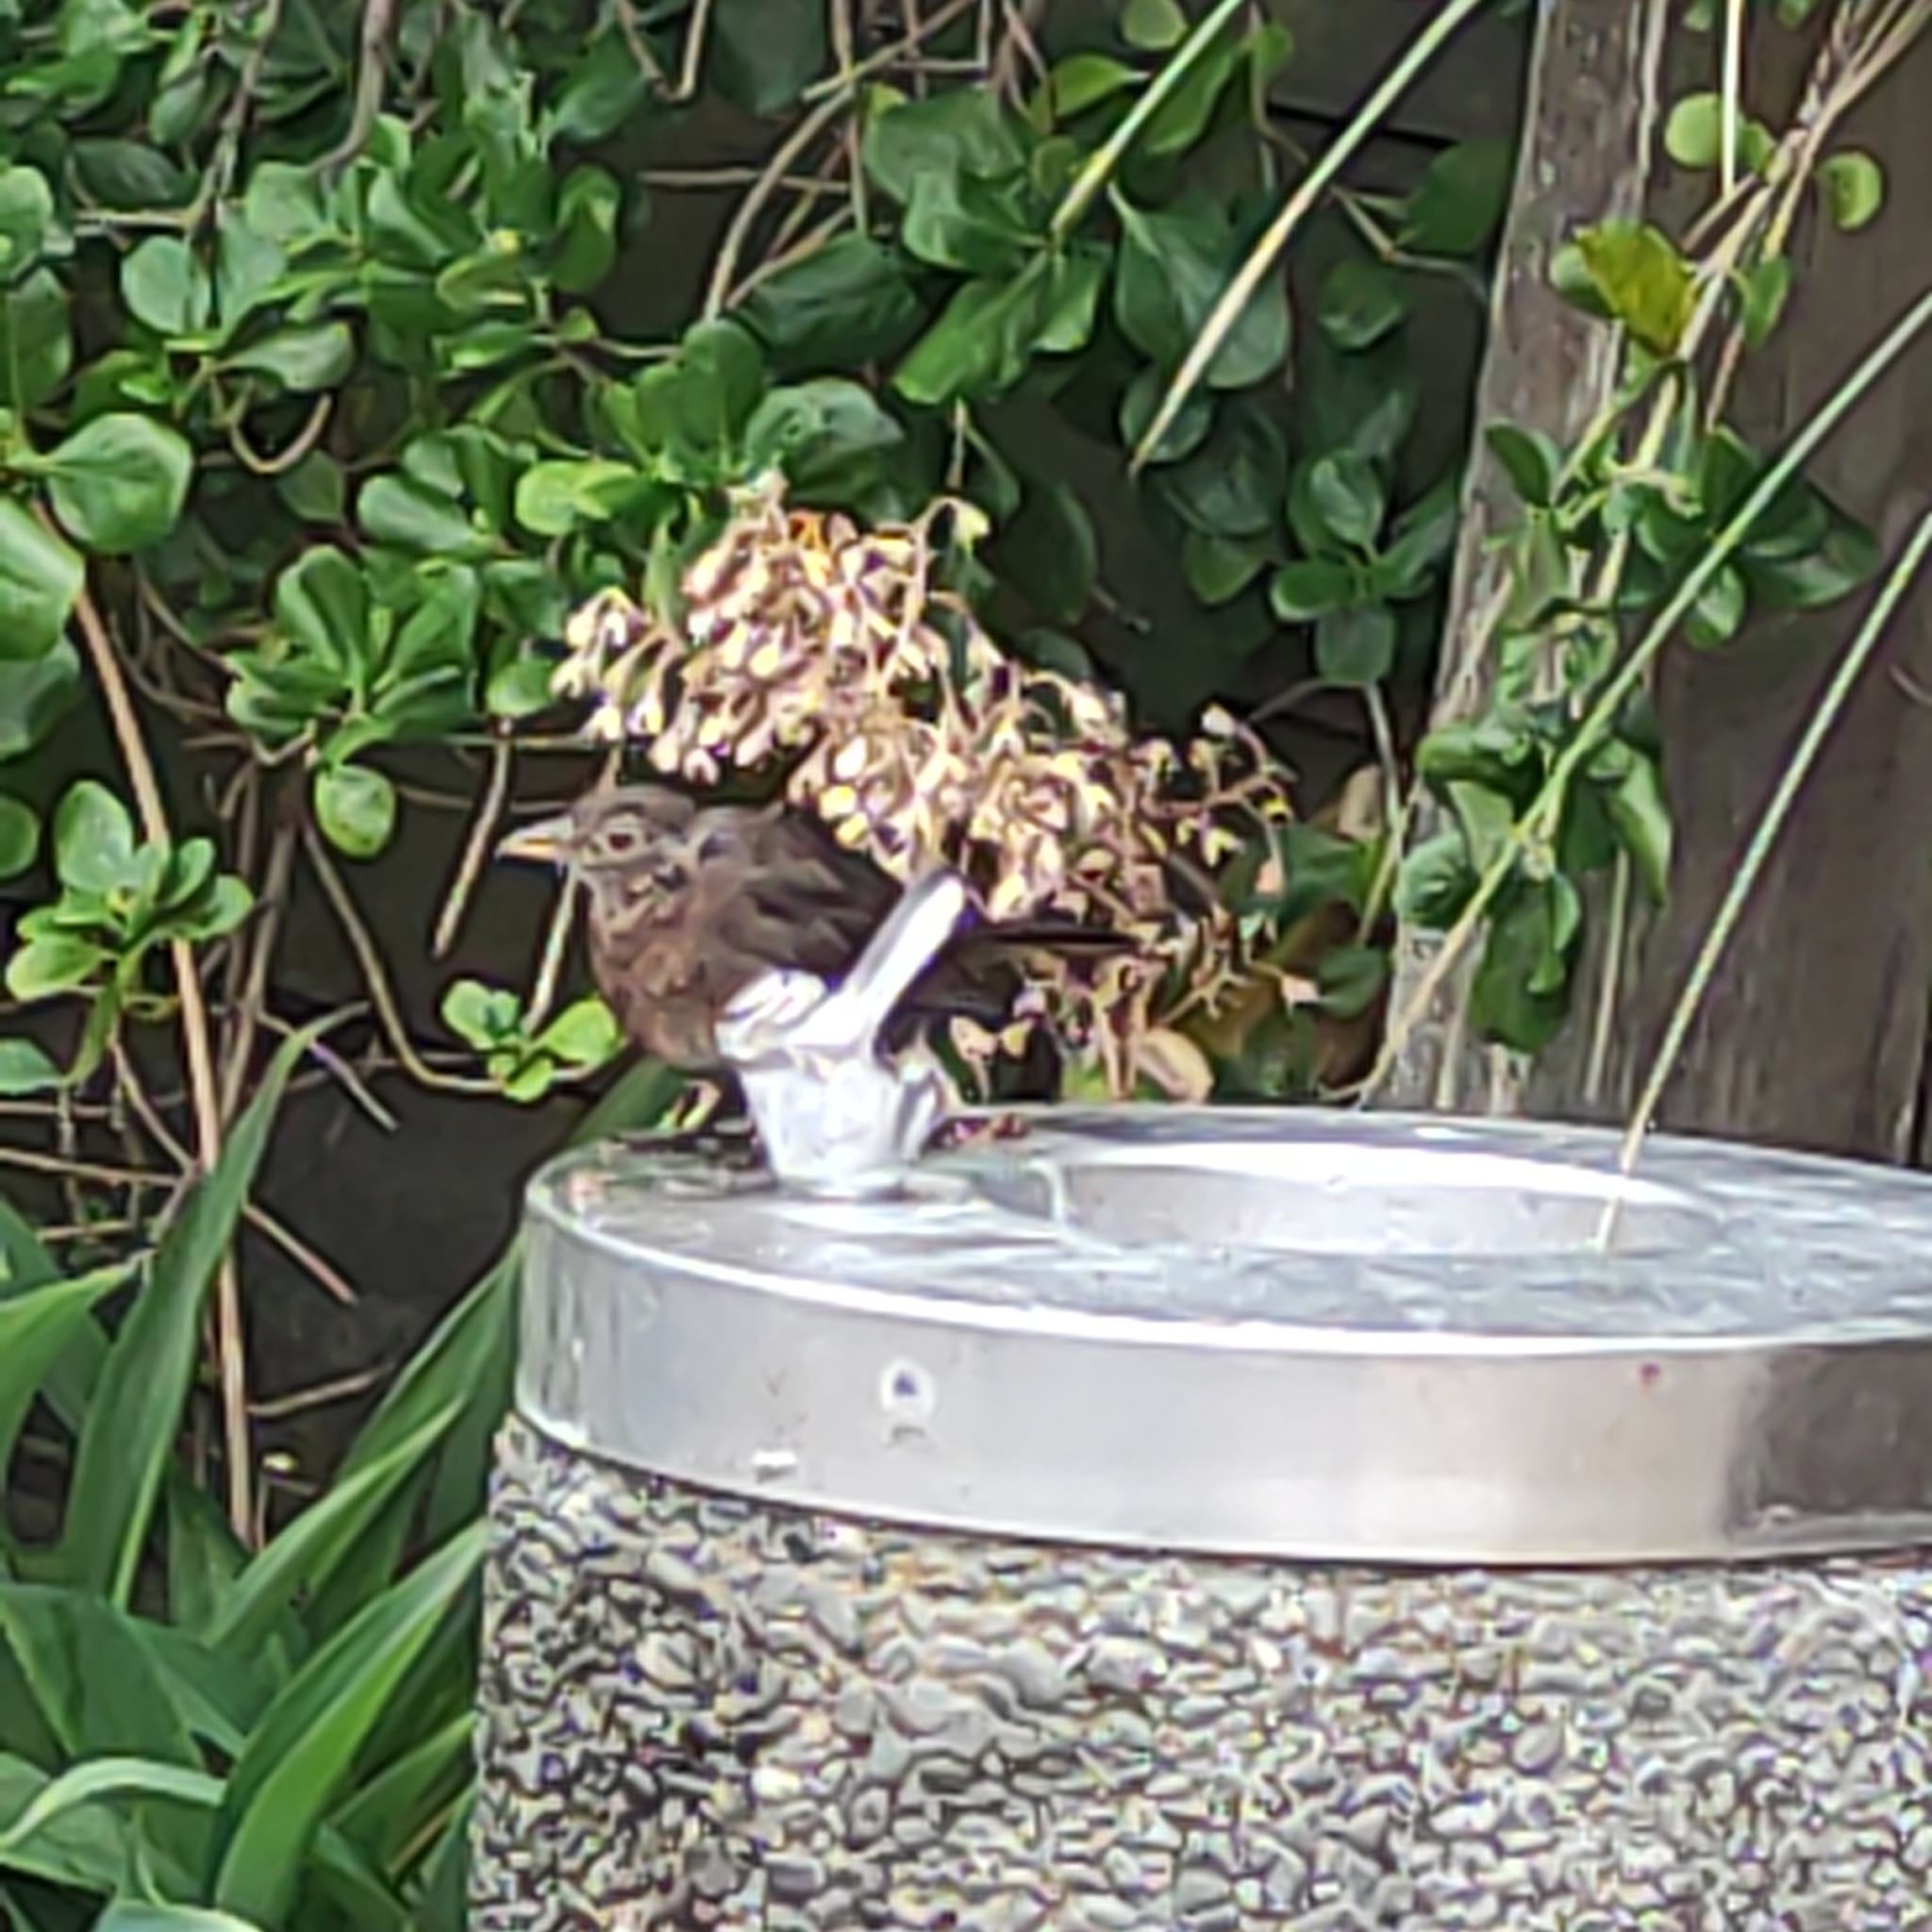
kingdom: Animalia
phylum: Chordata
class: Aves
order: Passeriformes
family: Turdidae
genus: Turdus
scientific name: Turdus merula
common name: Common blackbird
